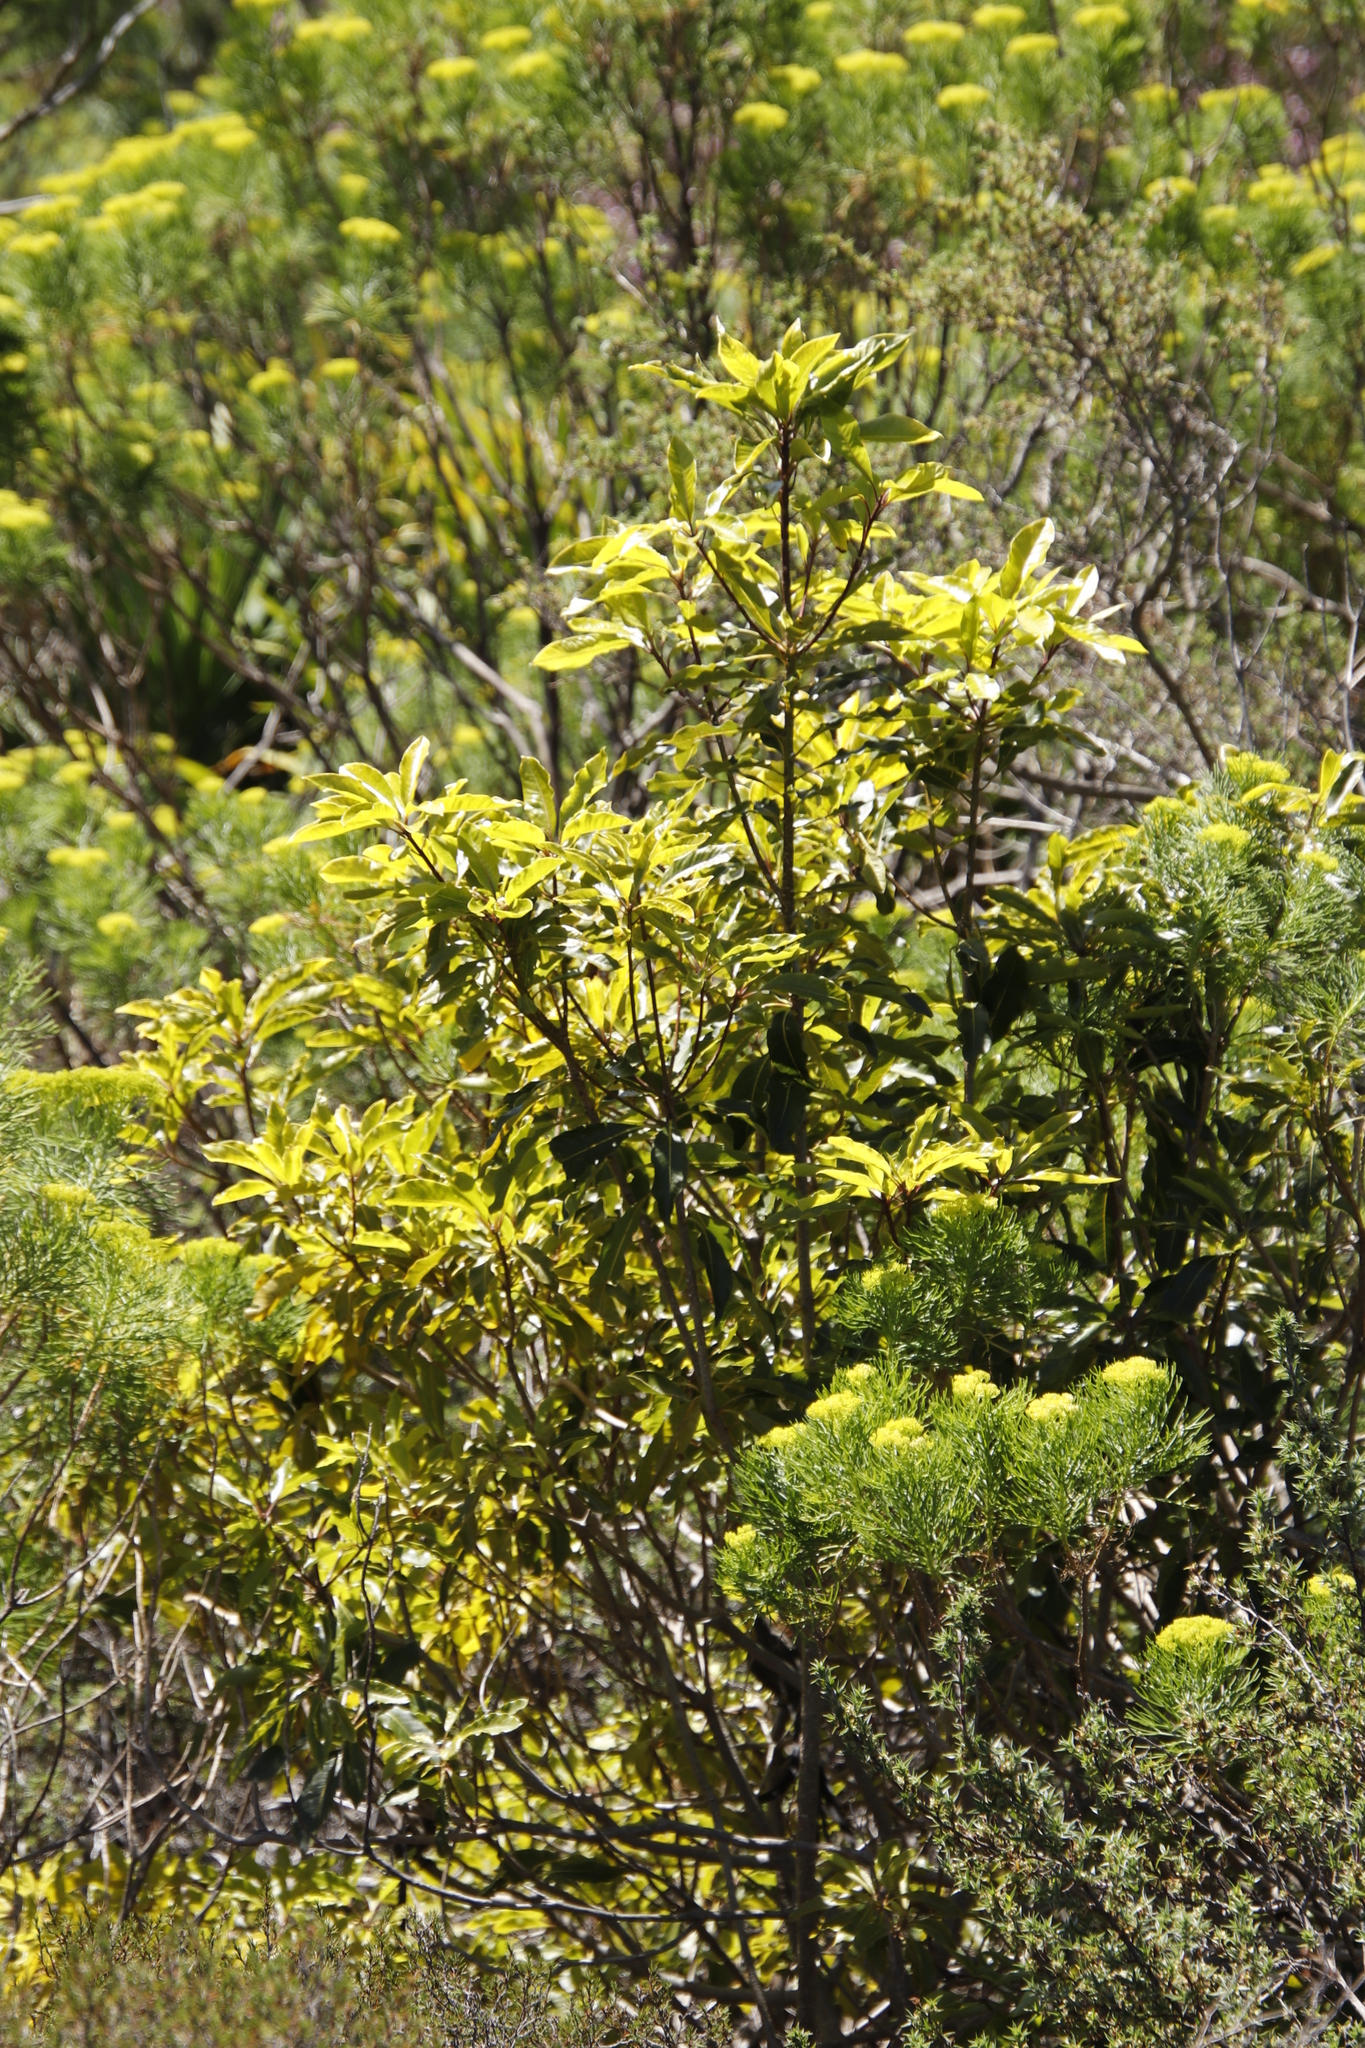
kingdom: Plantae
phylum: Tracheophyta
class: Magnoliopsida
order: Apiales
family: Pittosporaceae
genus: Pittosporum
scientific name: Pittosporum undulatum
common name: Australian cheesewood
